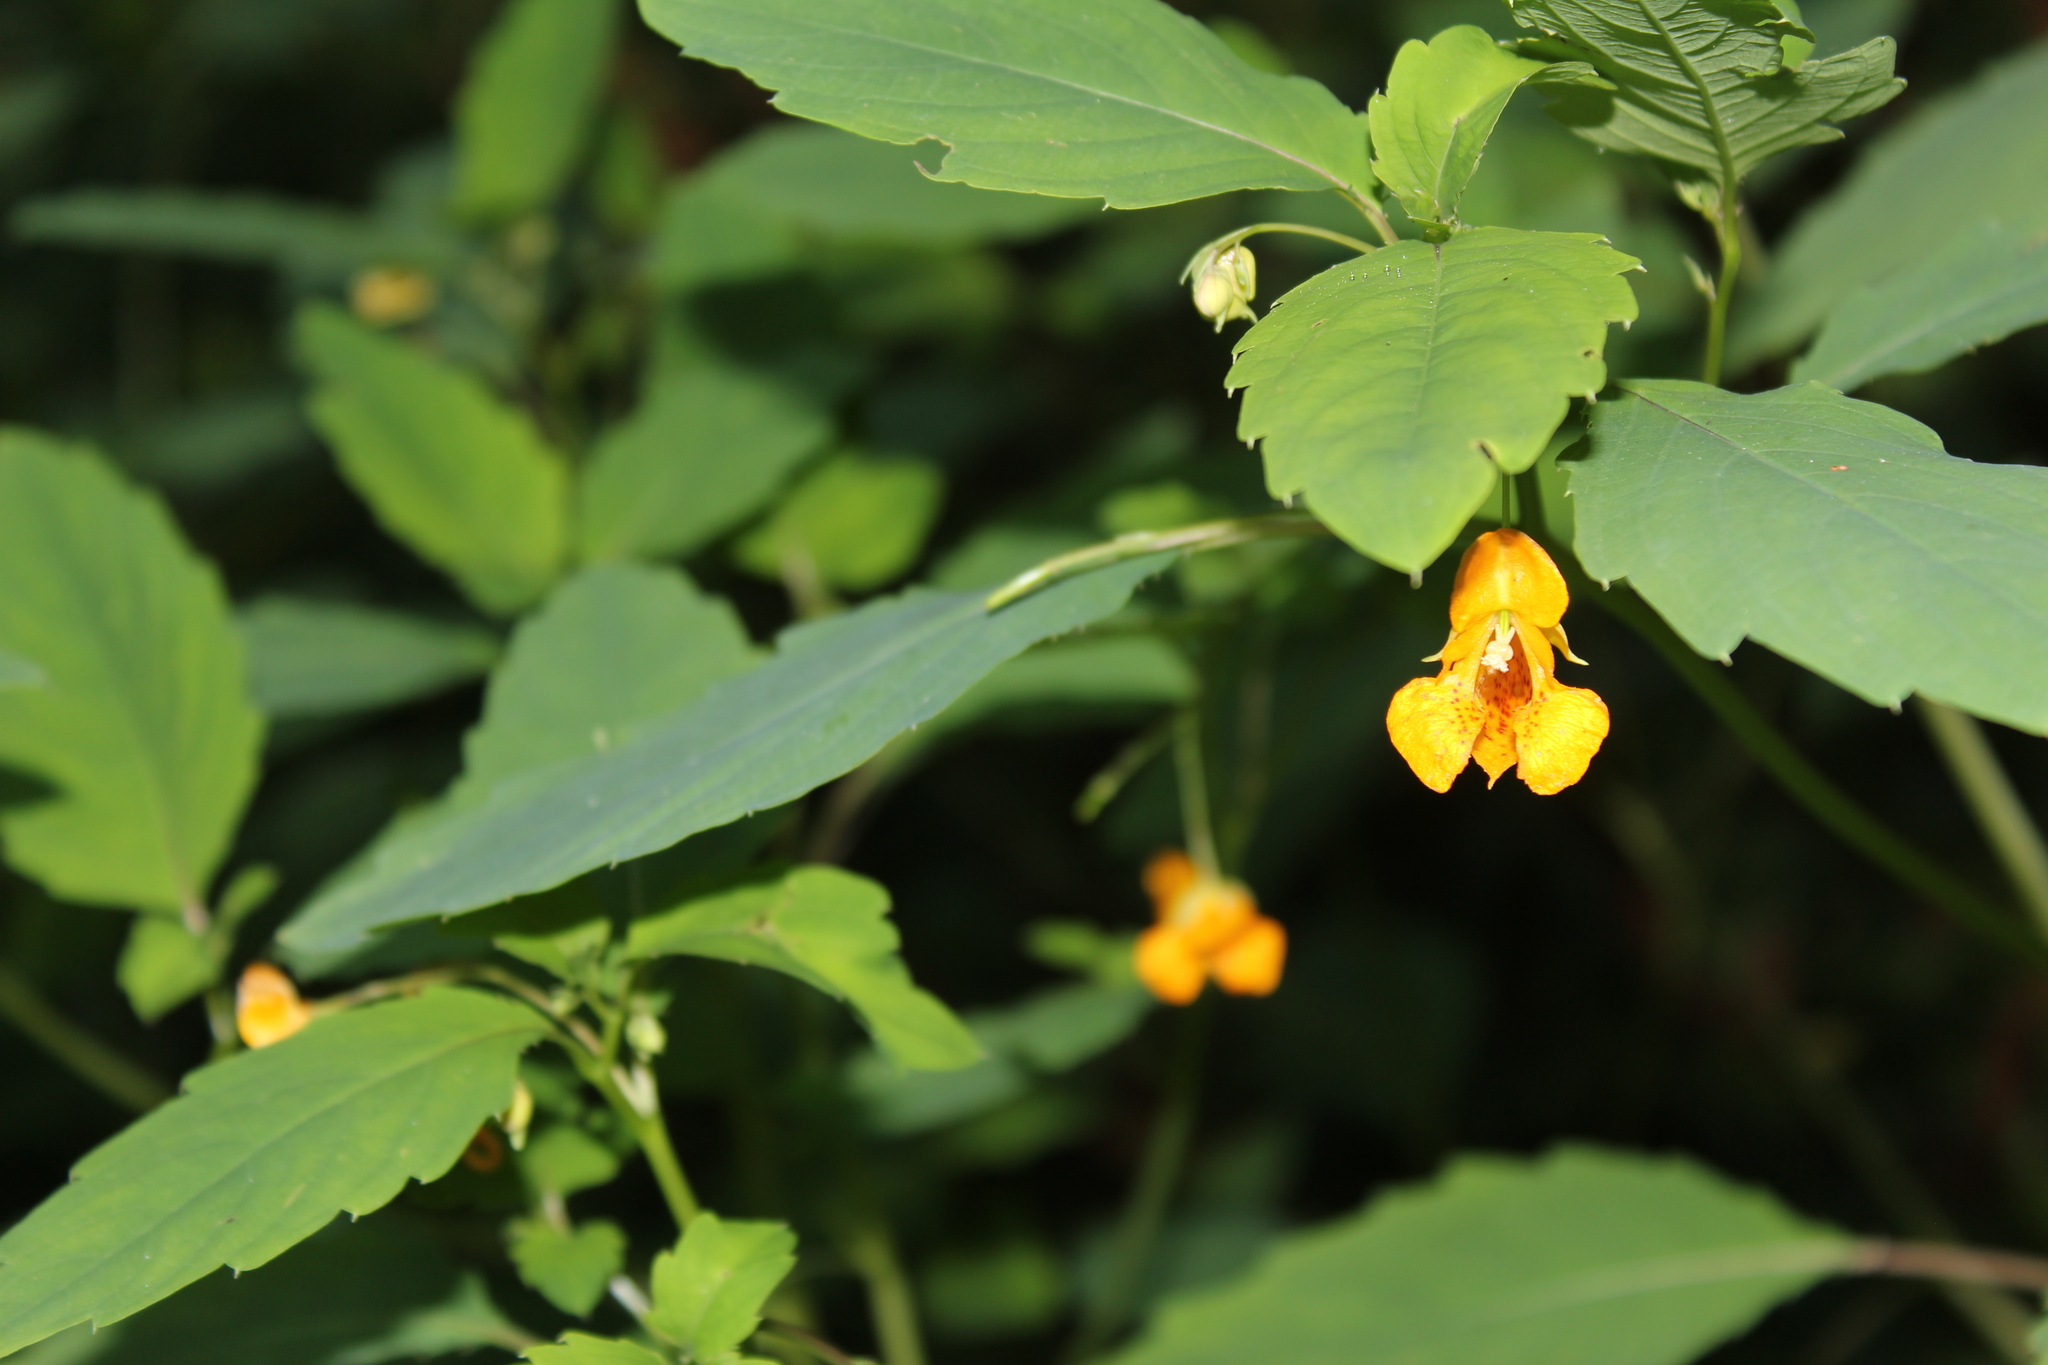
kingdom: Plantae
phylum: Tracheophyta
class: Magnoliopsida
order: Ericales
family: Balsaminaceae
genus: Impatiens
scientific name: Impatiens capensis
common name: Orange balsam
